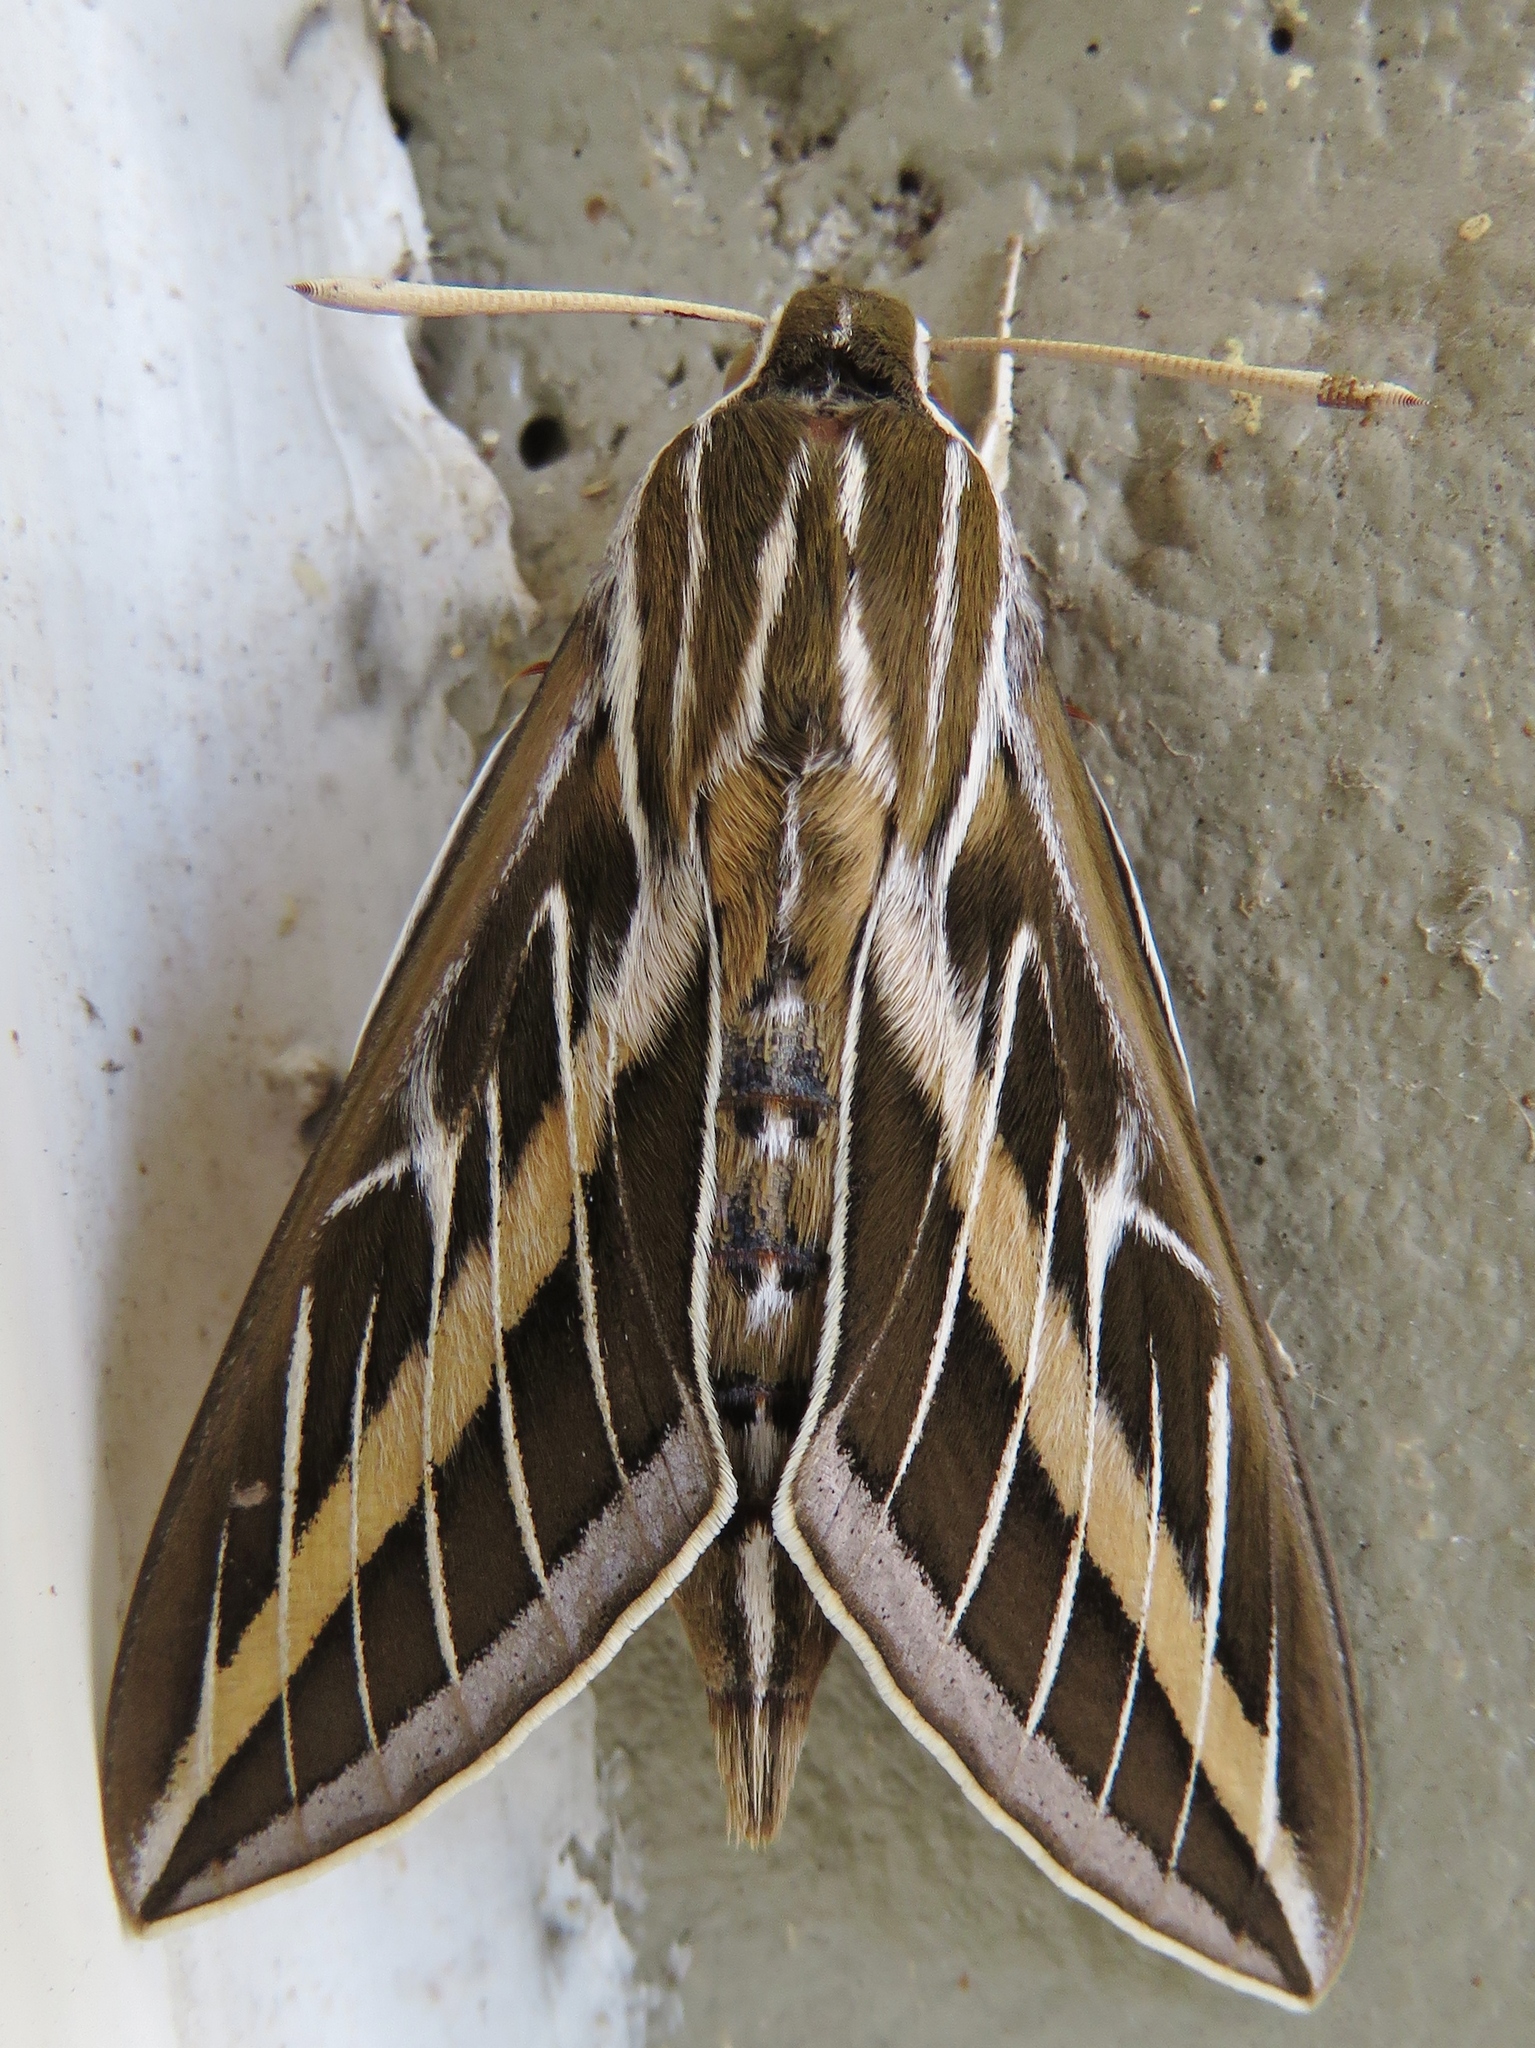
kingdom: Animalia
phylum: Arthropoda
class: Insecta
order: Lepidoptera
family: Sphingidae
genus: Hyles
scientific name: Hyles lineata
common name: White-lined sphinx
